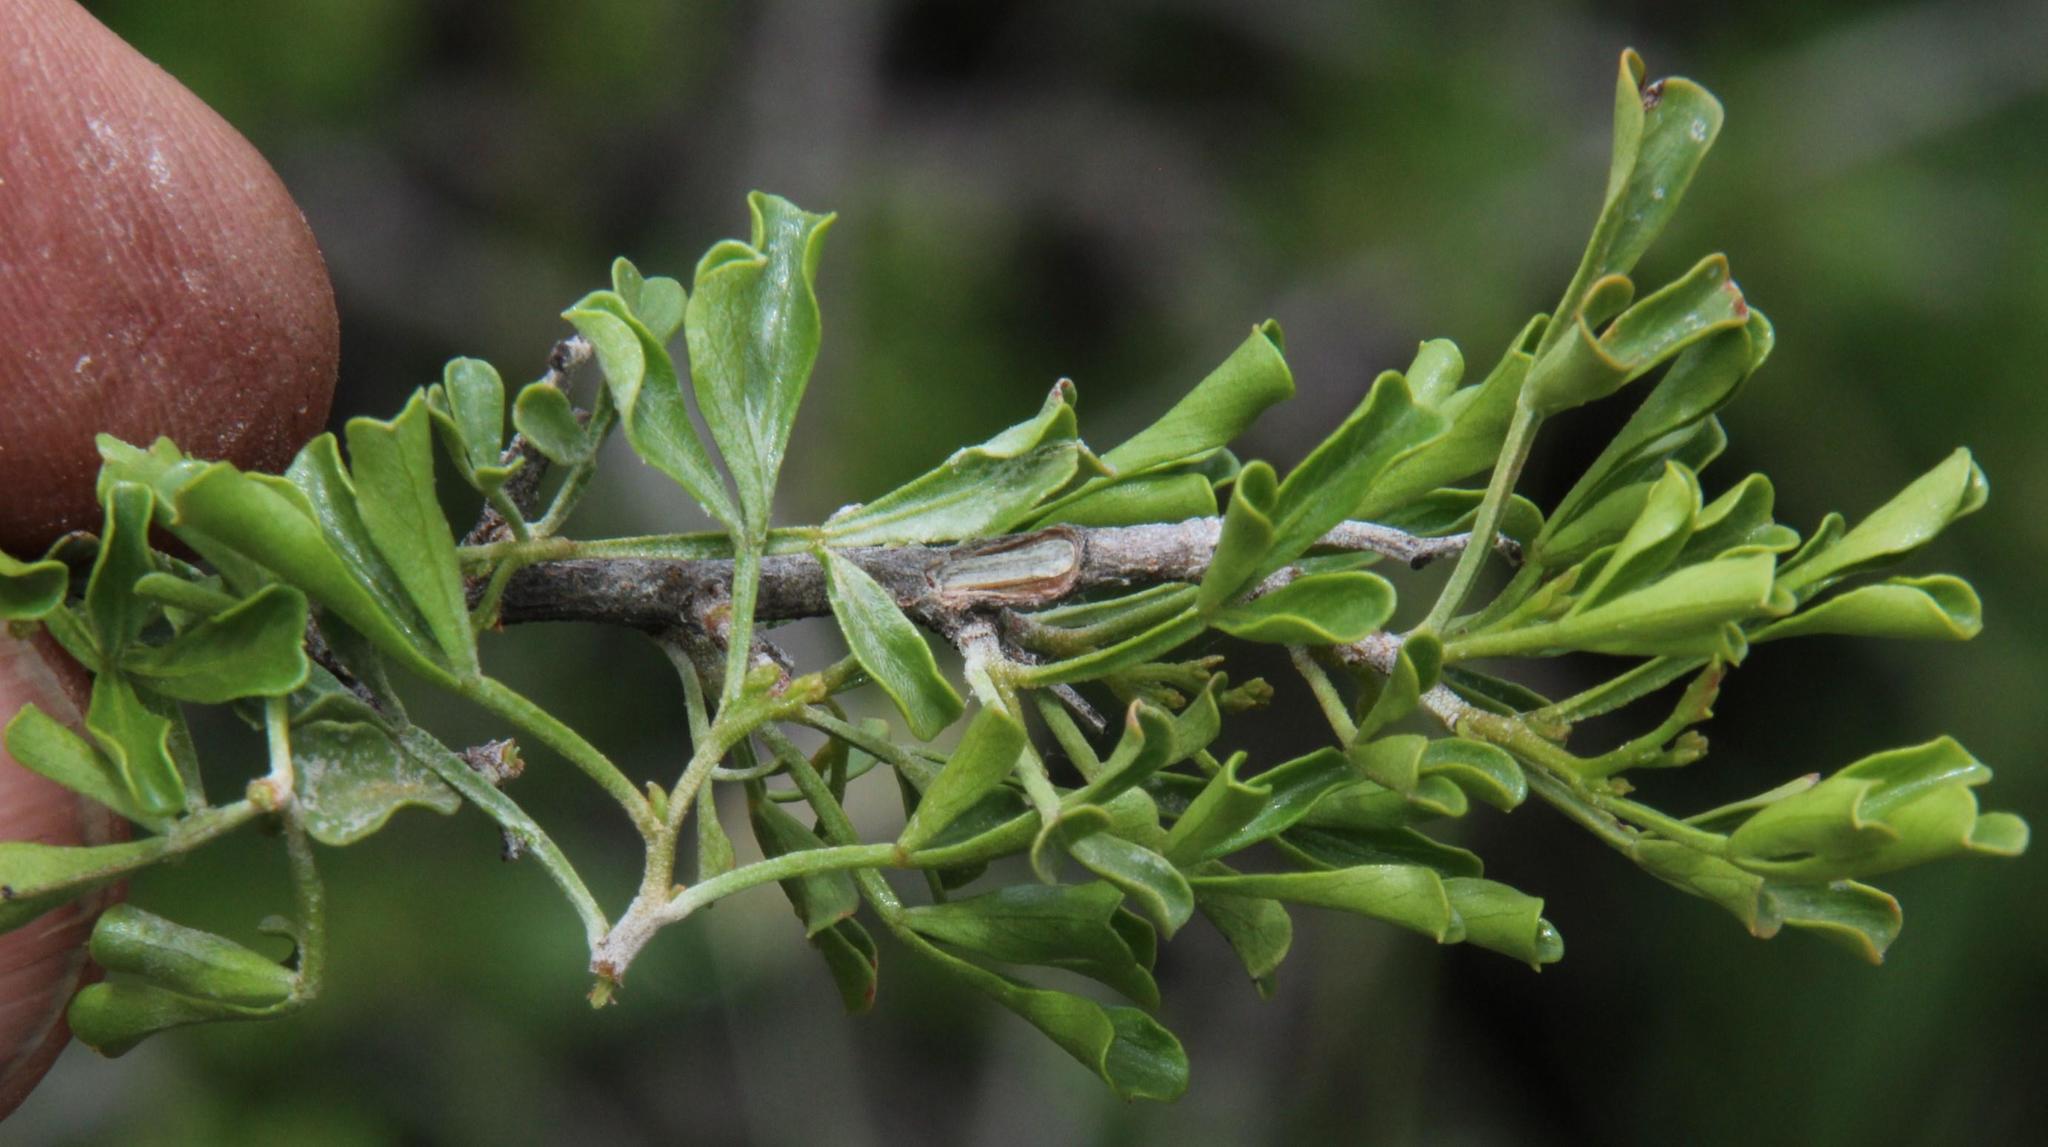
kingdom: Plantae
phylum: Tracheophyta
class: Magnoliopsida
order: Sapindales
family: Anacardiaceae
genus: Searsia
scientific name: Searsia burchellii
